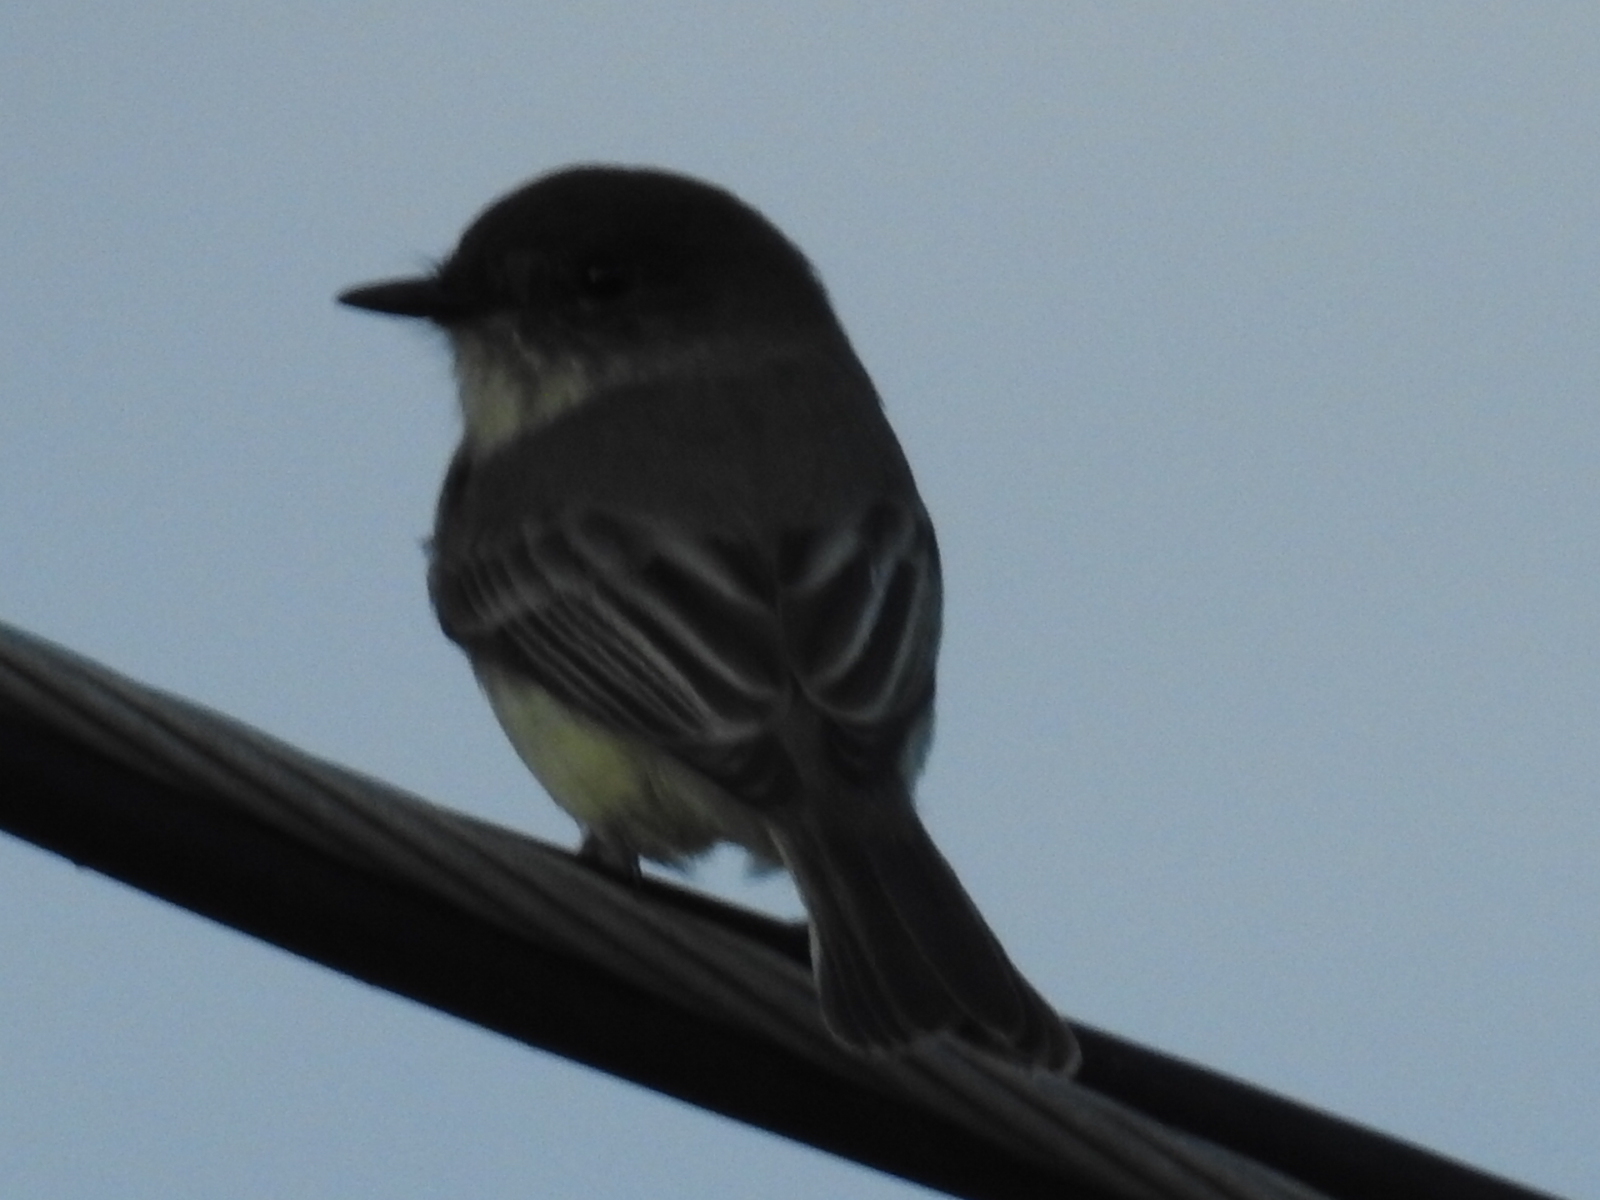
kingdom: Animalia
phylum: Chordata
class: Aves
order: Passeriformes
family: Tyrannidae
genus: Sayornis
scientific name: Sayornis phoebe
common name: Eastern phoebe
